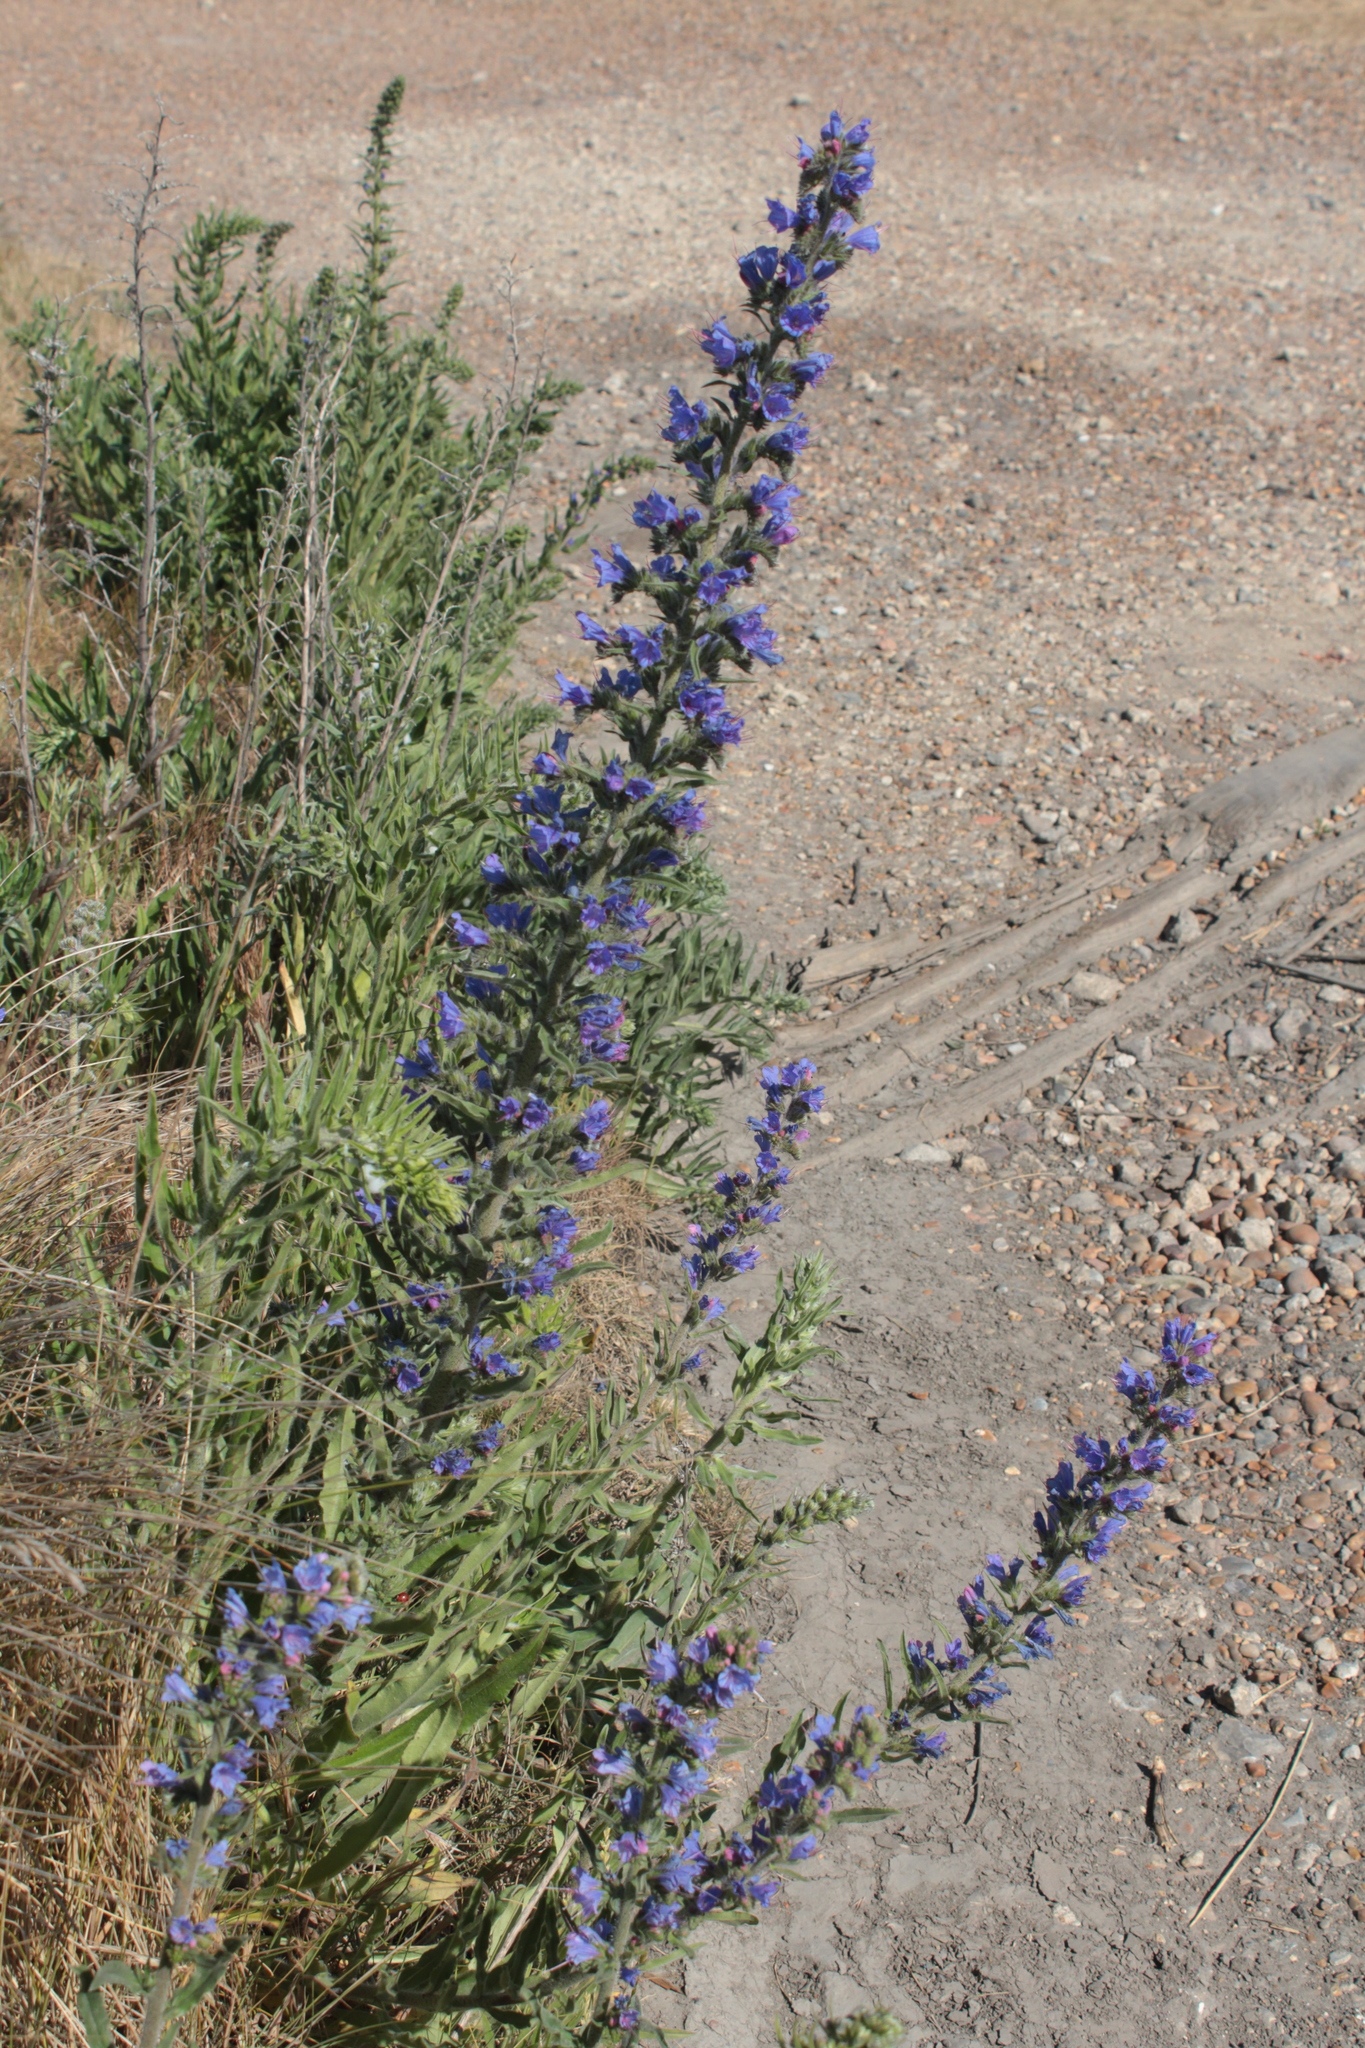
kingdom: Plantae
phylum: Tracheophyta
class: Magnoliopsida
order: Boraginales
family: Boraginaceae
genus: Echium
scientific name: Echium vulgare
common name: Common viper's bugloss
